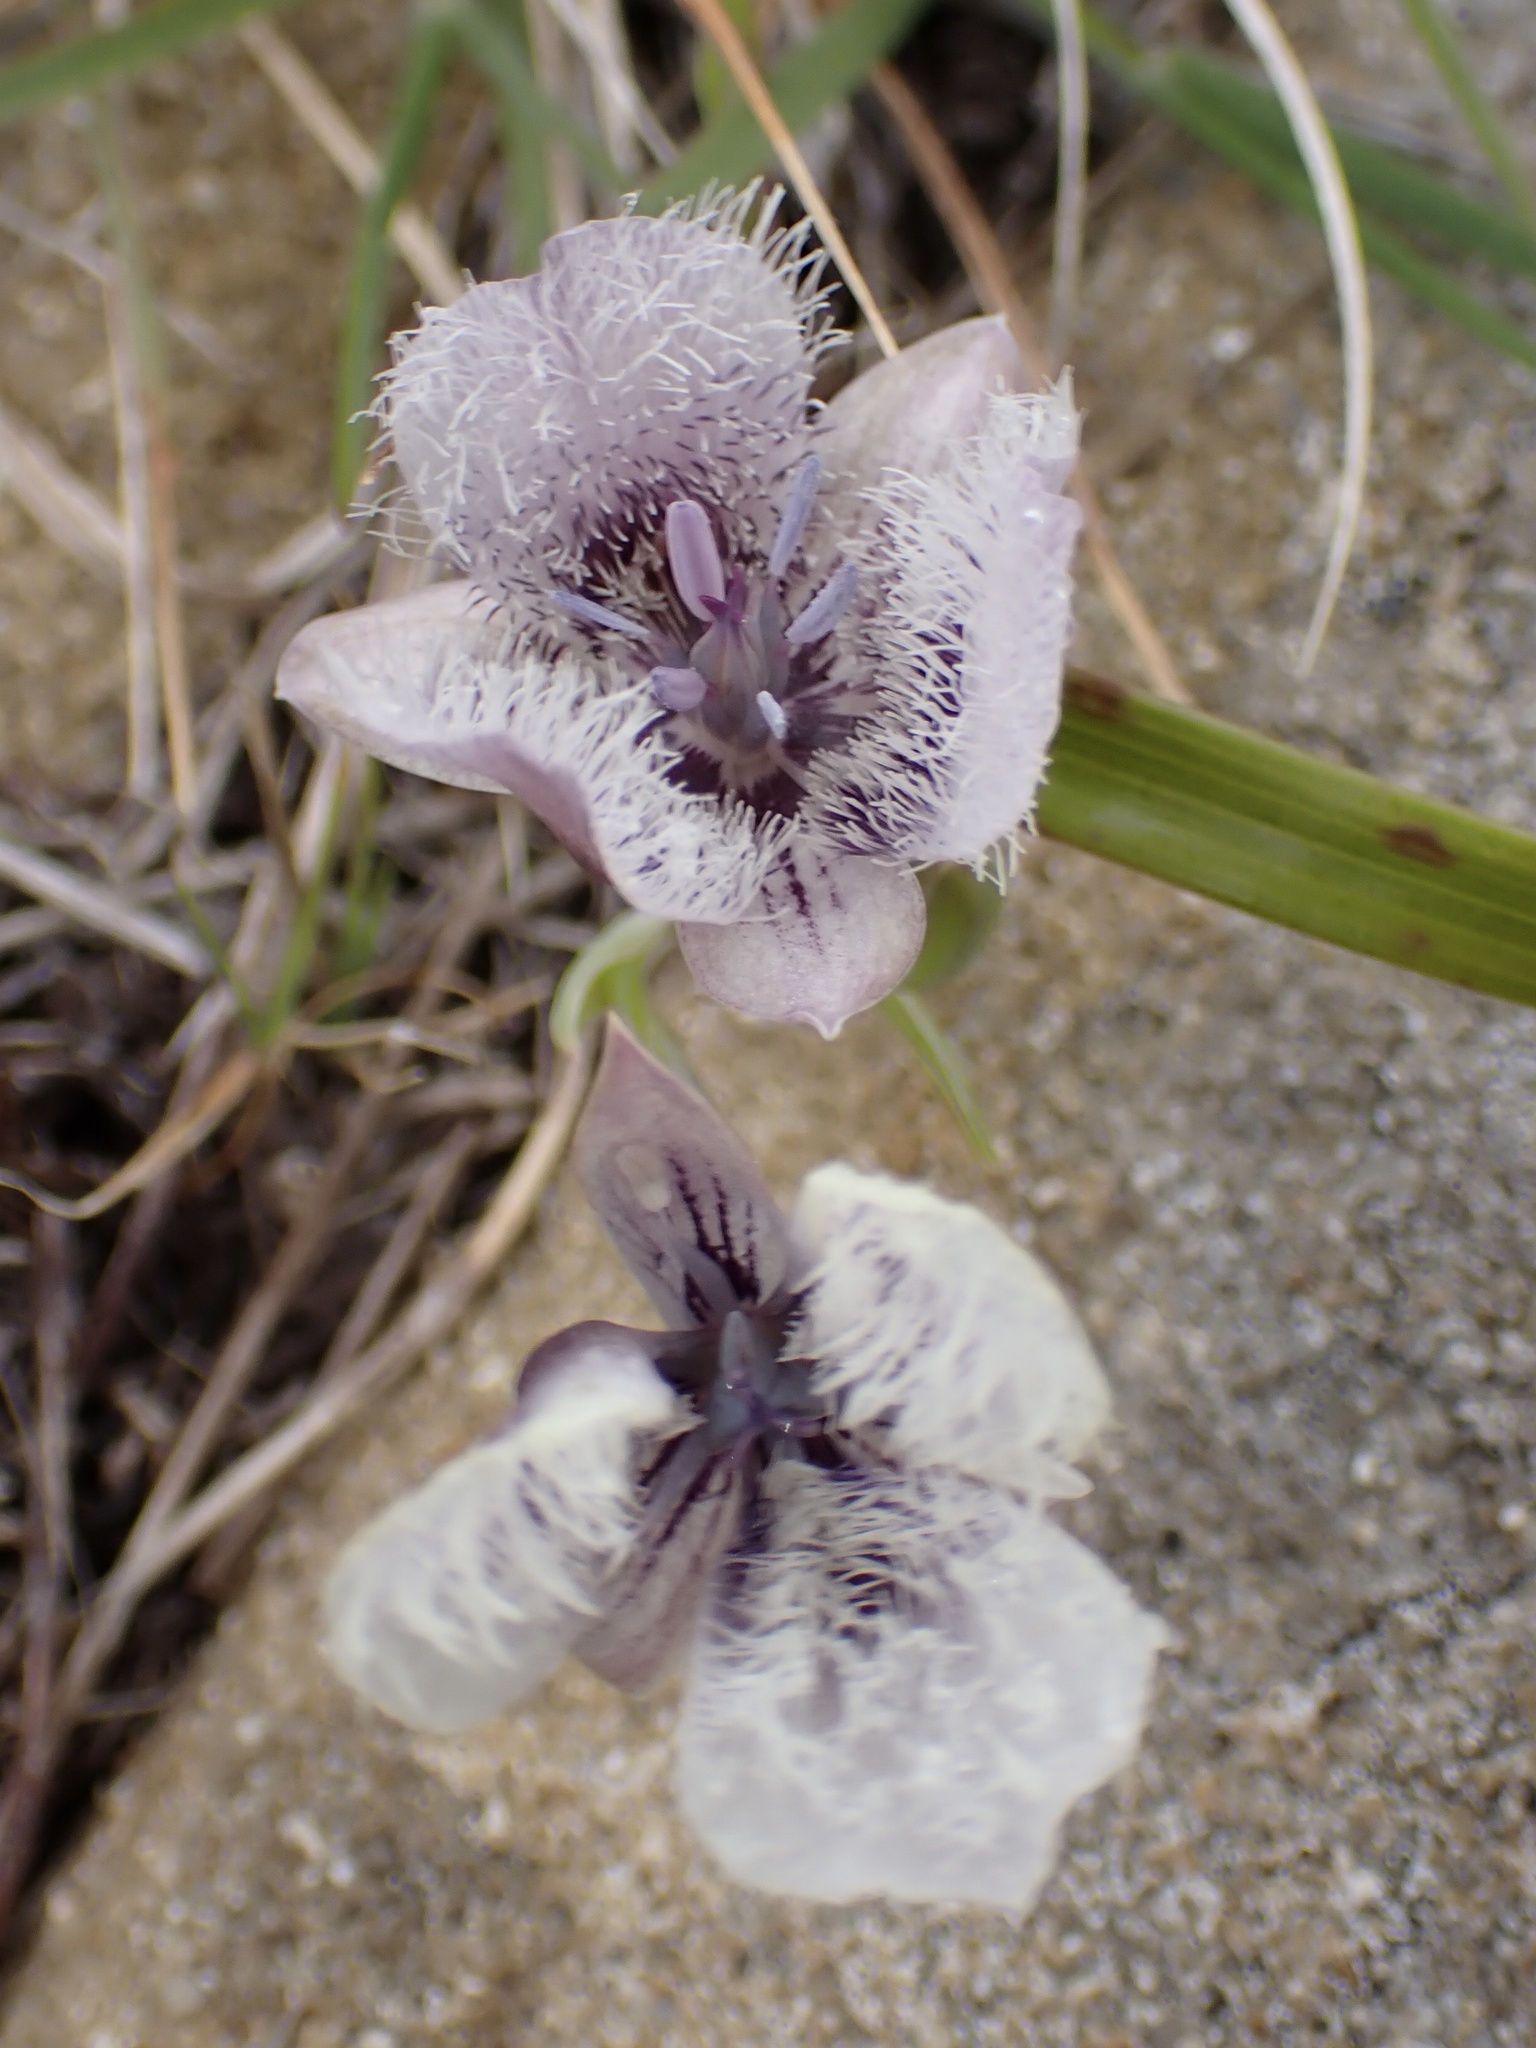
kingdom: Plantae
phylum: Tracheophyta
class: Liliopsida
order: Liliales
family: Liliaceae
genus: Calochortus
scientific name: Calochortus tolmiei
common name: Pussy-ears
